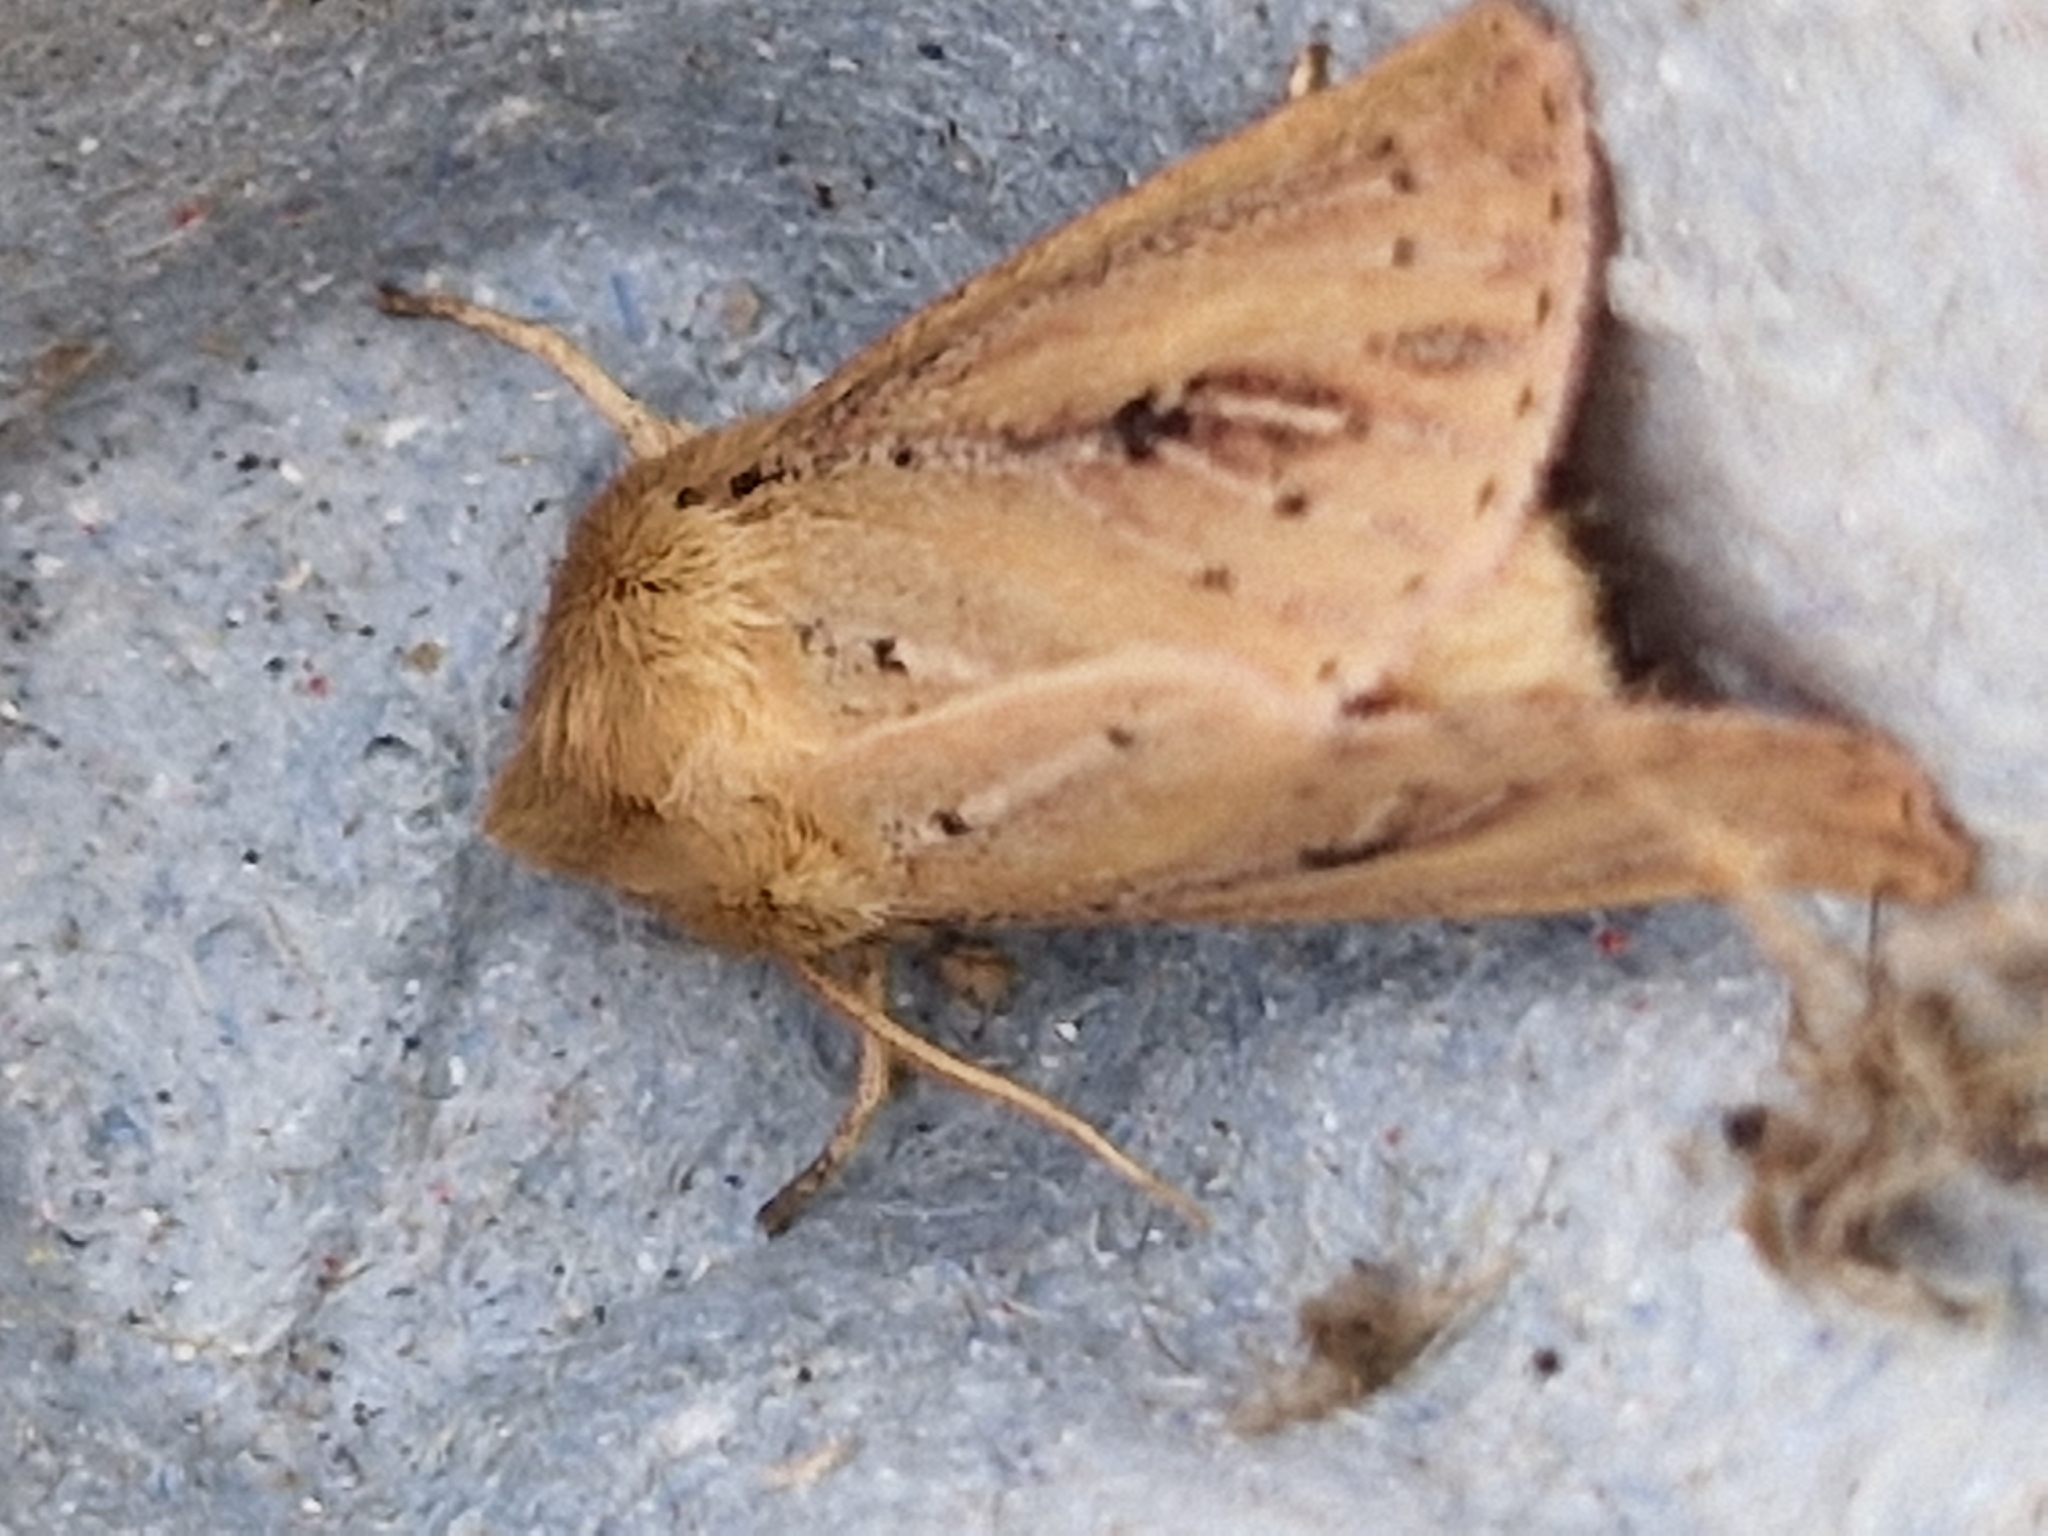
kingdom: Animalia
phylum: Arthropoda
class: Insecta
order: Lepidoptera
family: Noctuidae
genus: Globia
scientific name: Globia sparganii
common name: Webb's wainscot
